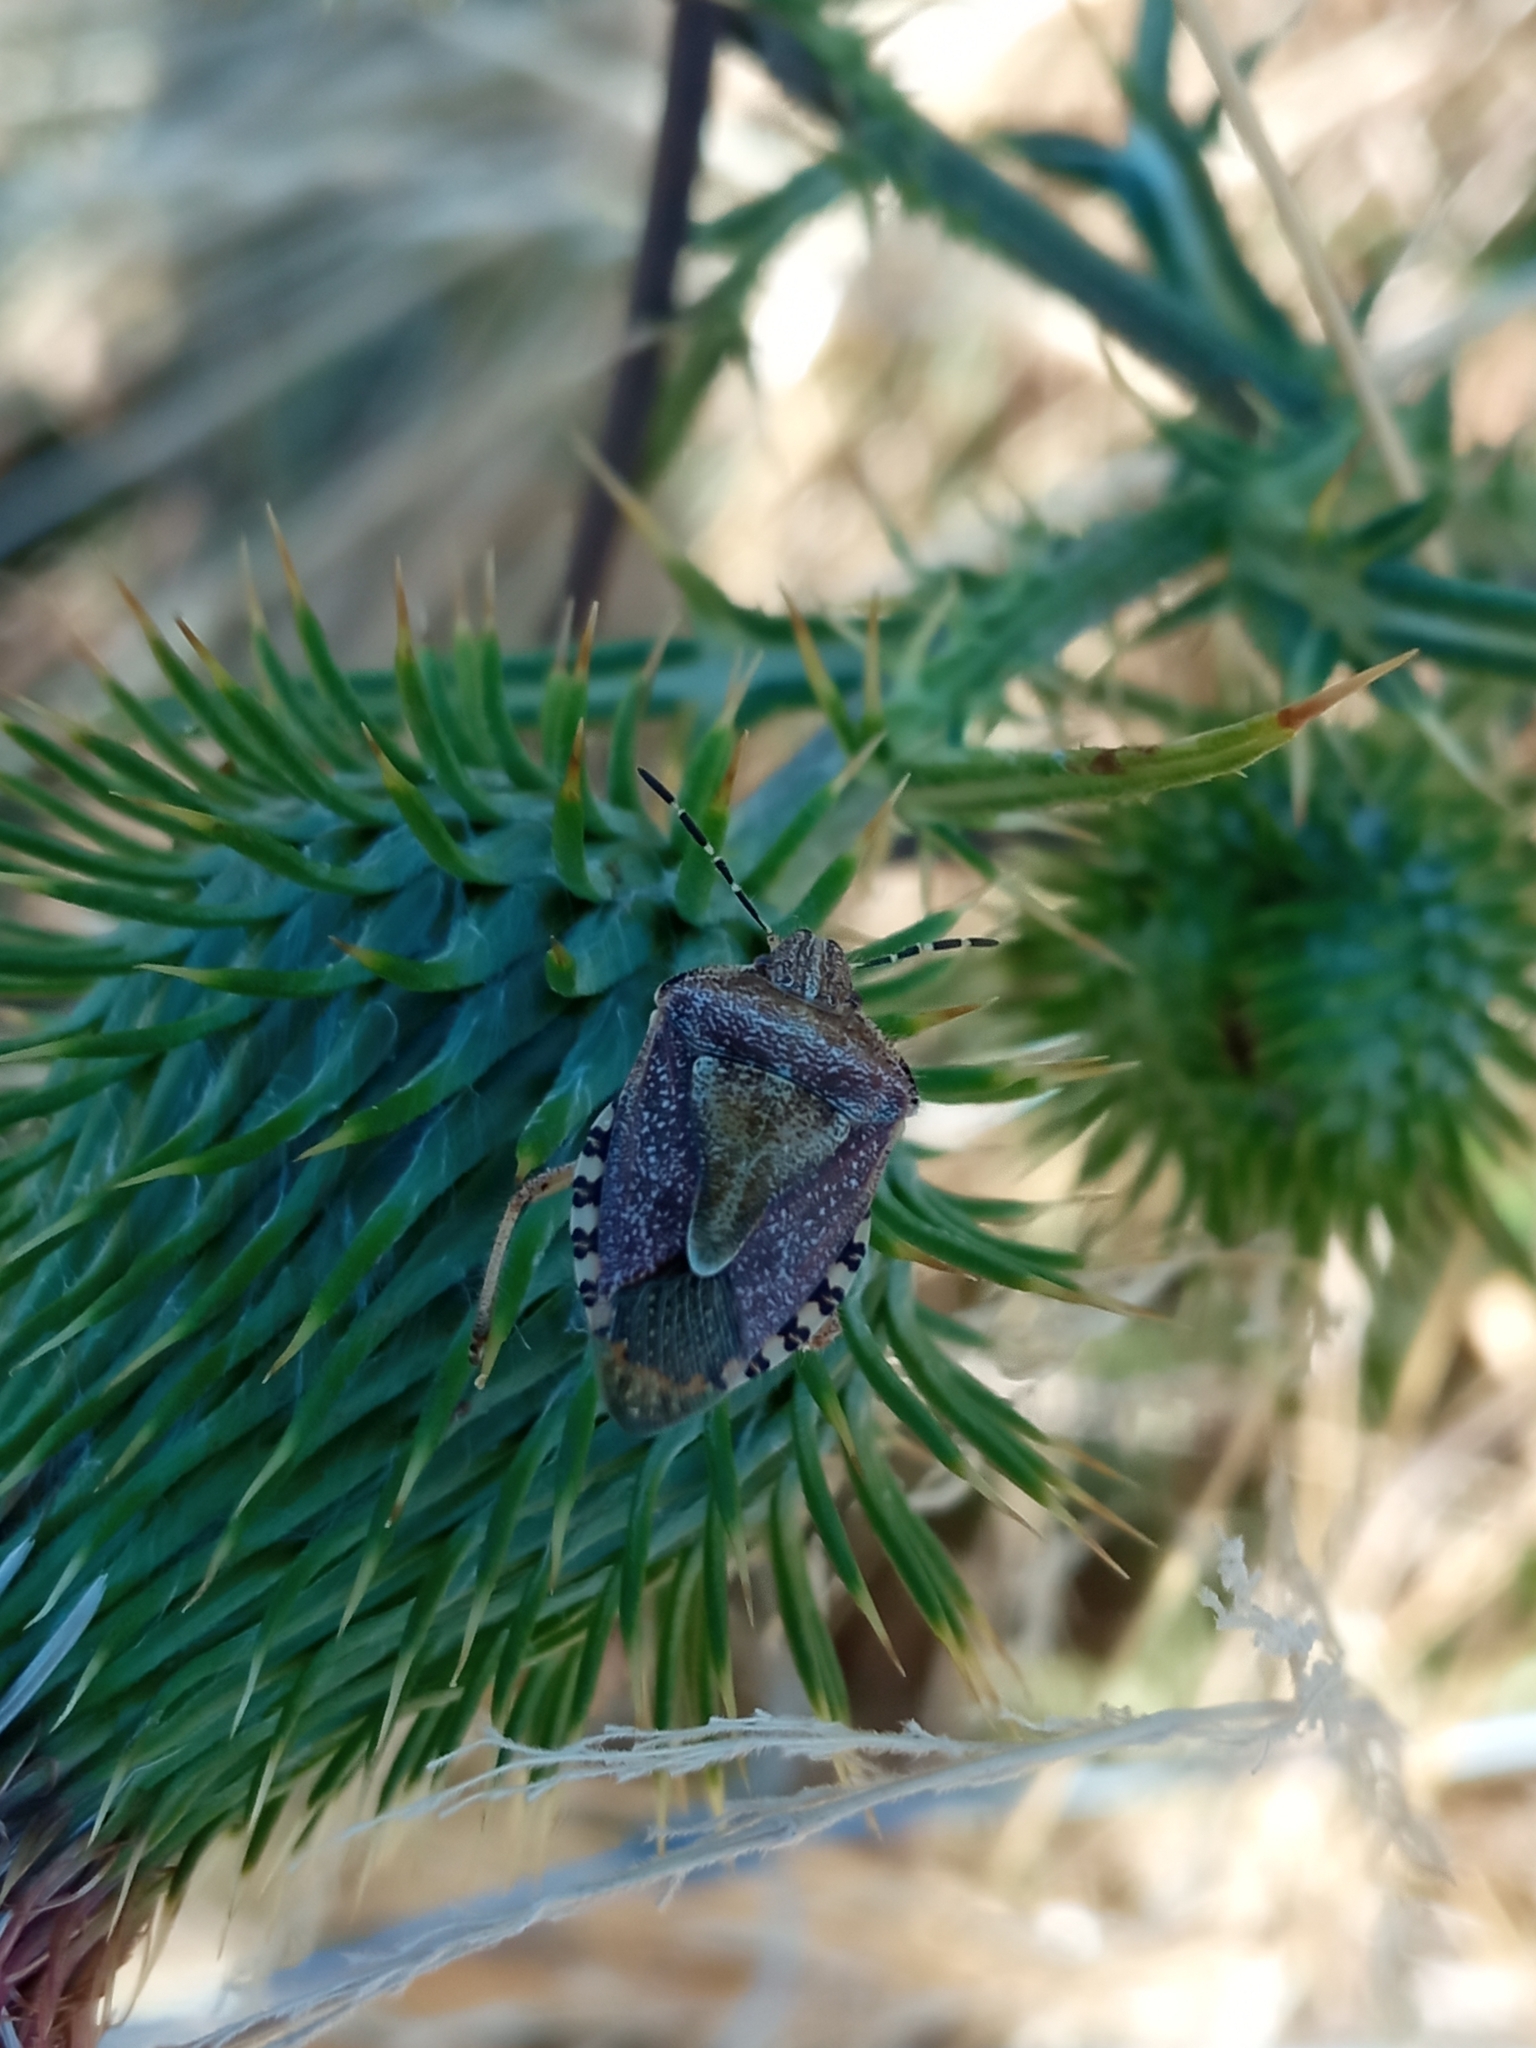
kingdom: Animalia
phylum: Arthropoda
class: Insecta
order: Hemiptera
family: Pentatomidae
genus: Dolycoris
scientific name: Dolycoris baccarum
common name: Sloe bug
